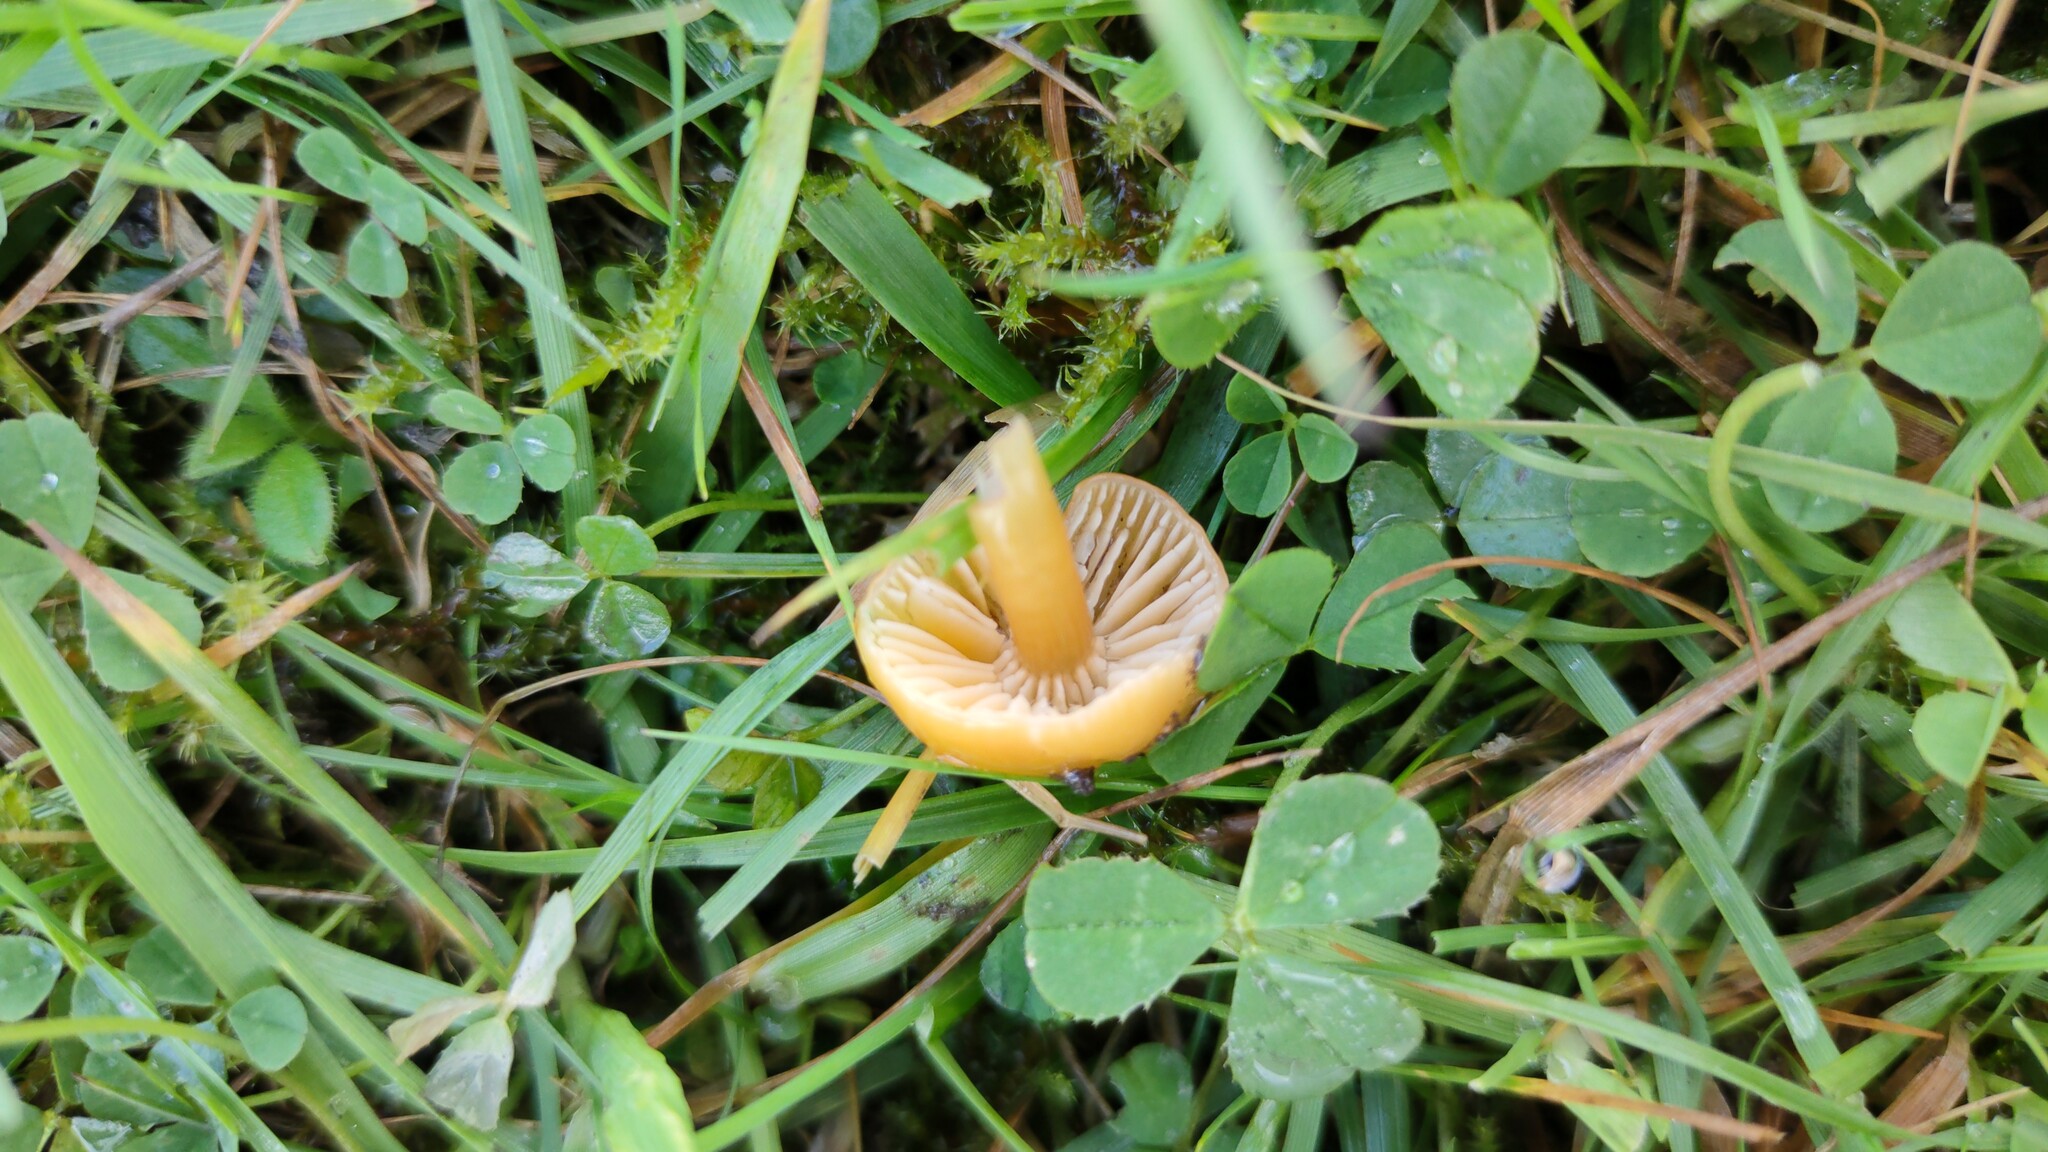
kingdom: Fungi
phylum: Basidiomycota
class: Agaricomycetes
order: Agaricales
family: Hygrophoraceae
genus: Gliophorus
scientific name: Gliophorus psittacinus
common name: Parrot wax-cap
